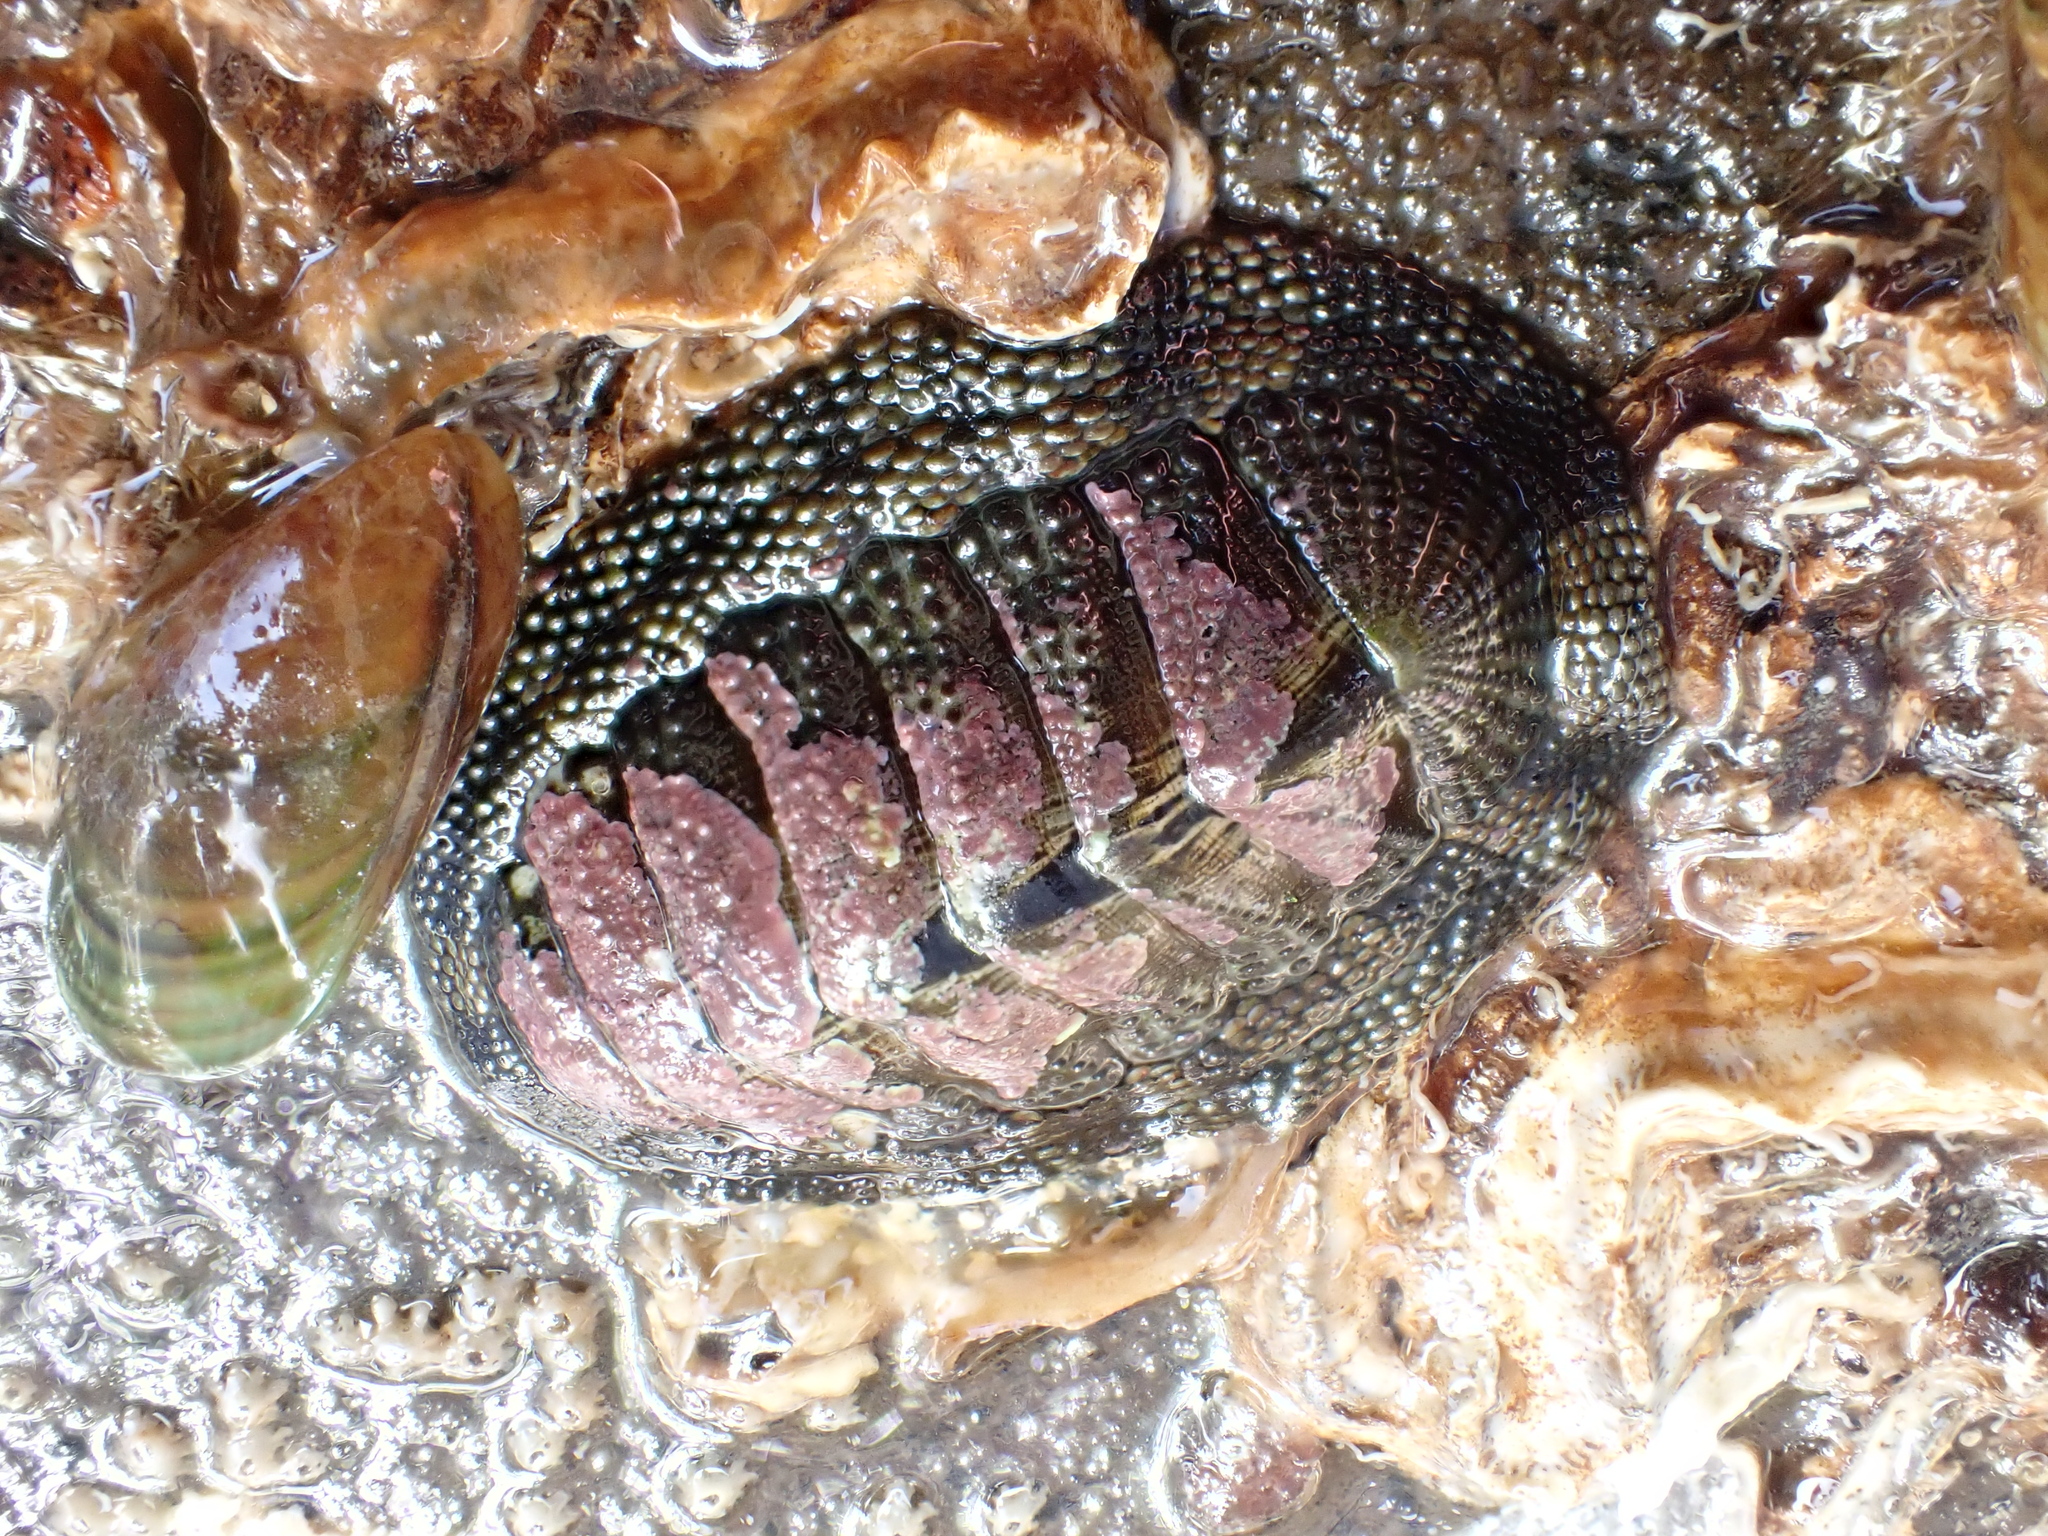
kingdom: Animalia
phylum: Mollusca
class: Polyplacophora
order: Chitonida
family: Chitonidae
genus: Sypharochiton
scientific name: Sypharochiton pelliserpentis
